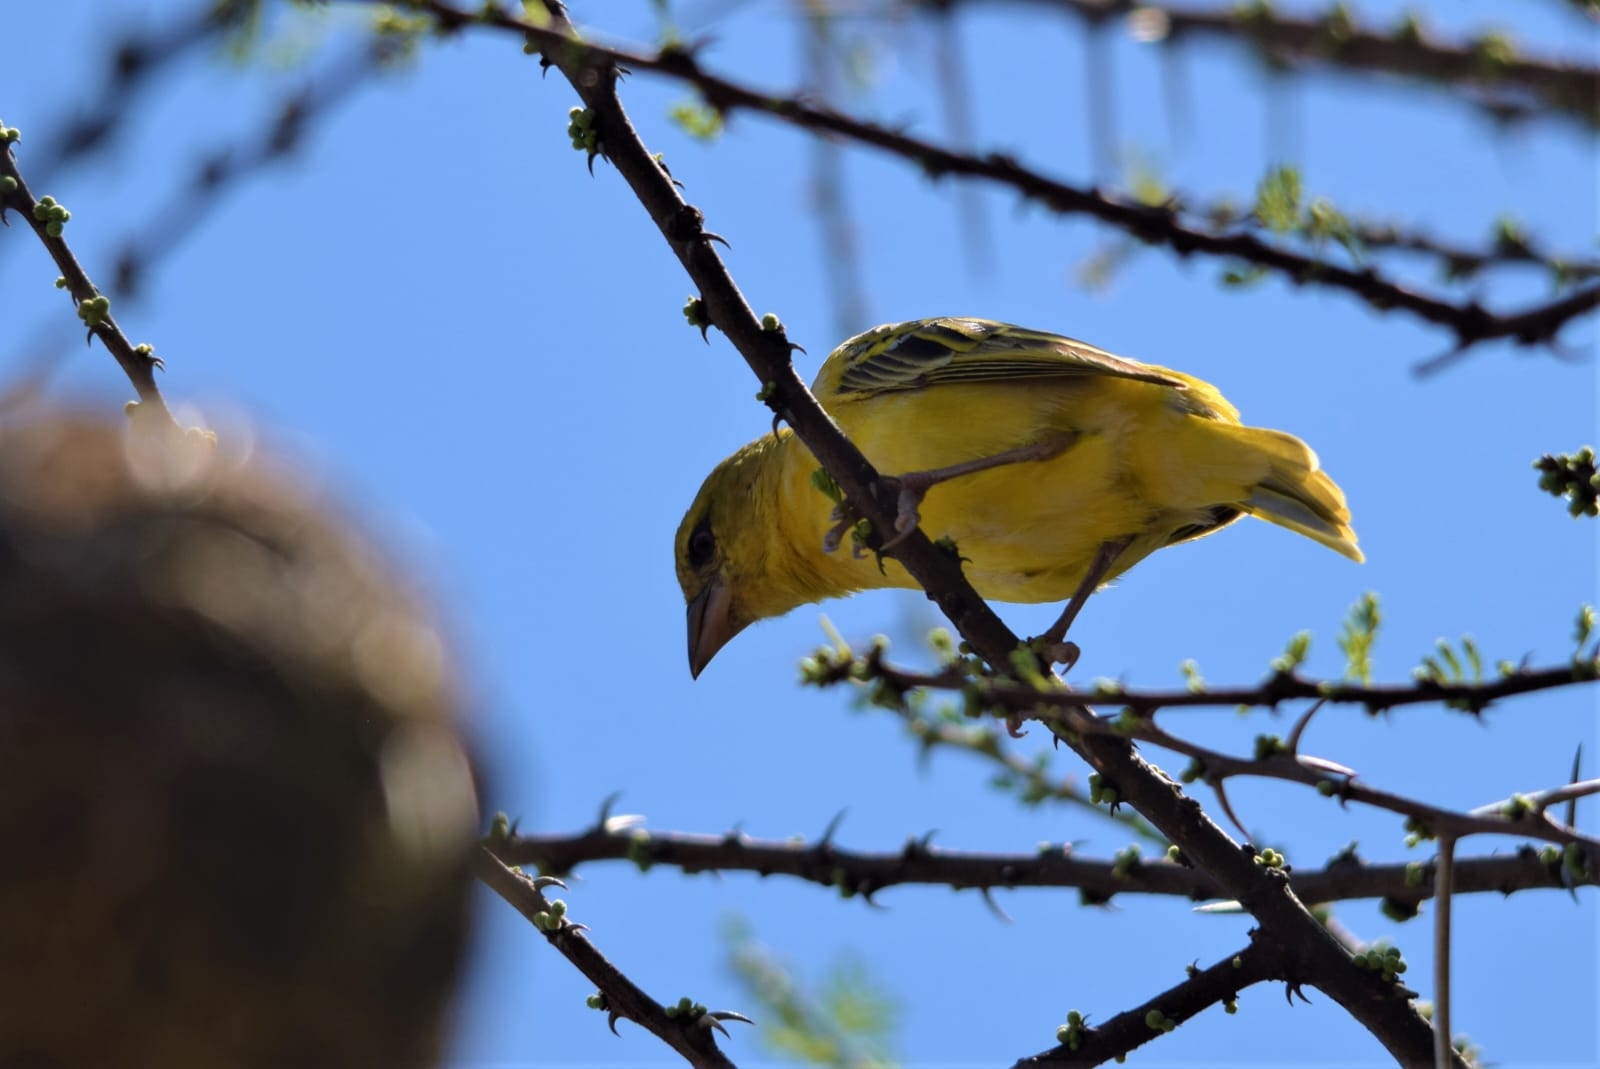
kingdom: Animalia
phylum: Chordata
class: Aves
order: Passeriformes
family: Ploceidae
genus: Ploceus
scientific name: Ploceus cucullatus
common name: Village weaver
